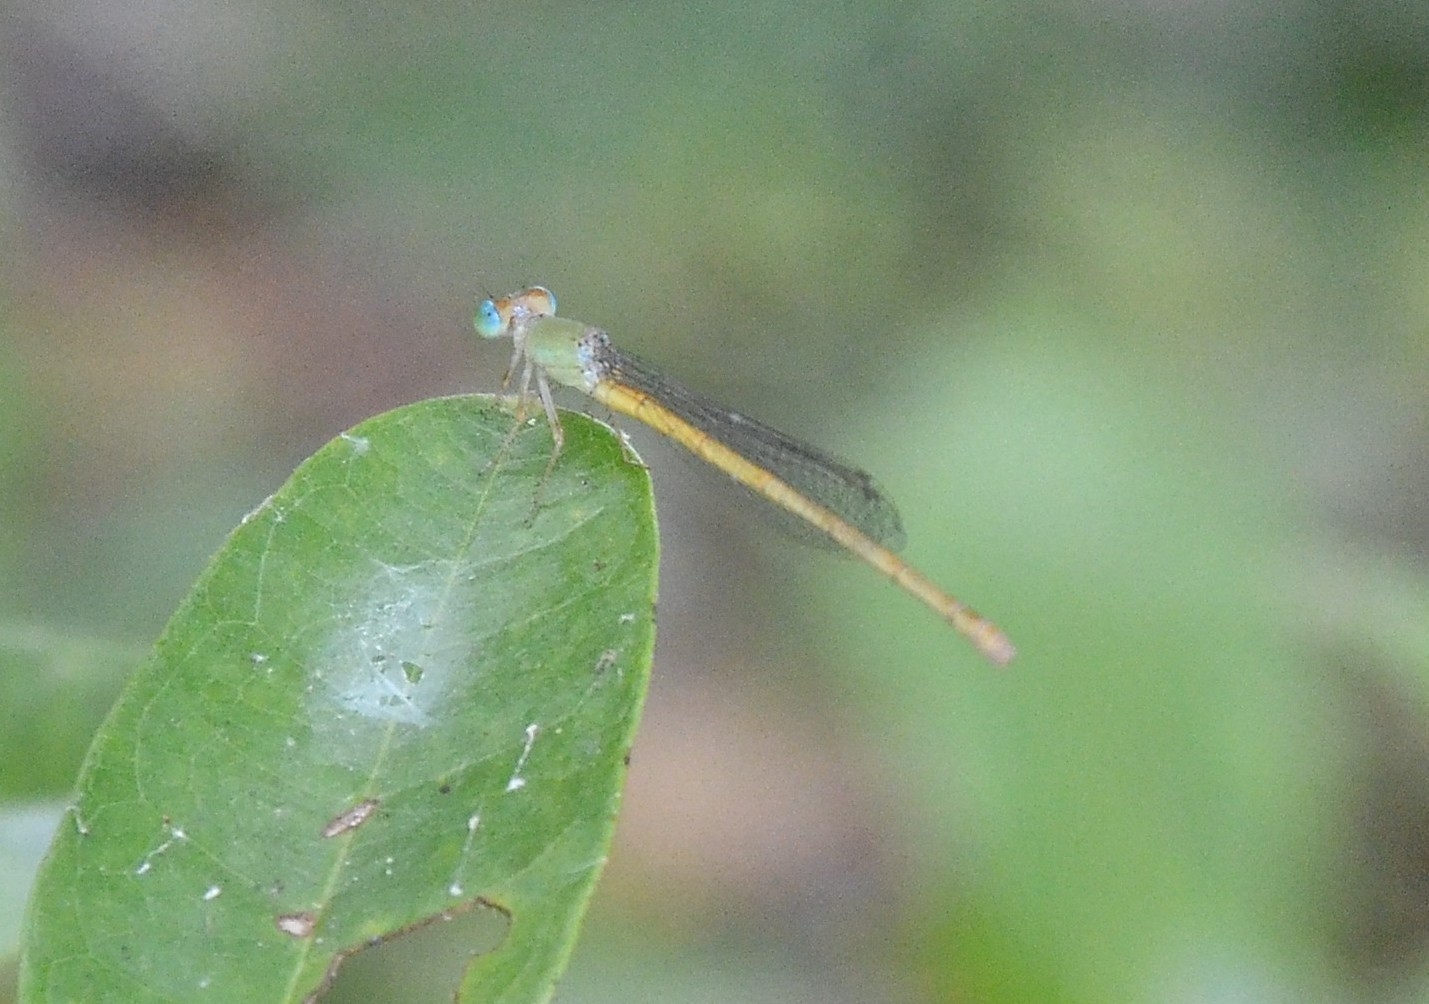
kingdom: Animalia
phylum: Arthropoda
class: Insecta
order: Odonata
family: Coenagrionidae
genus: Ceriagrion
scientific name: Ceriagrion coromandelianum
